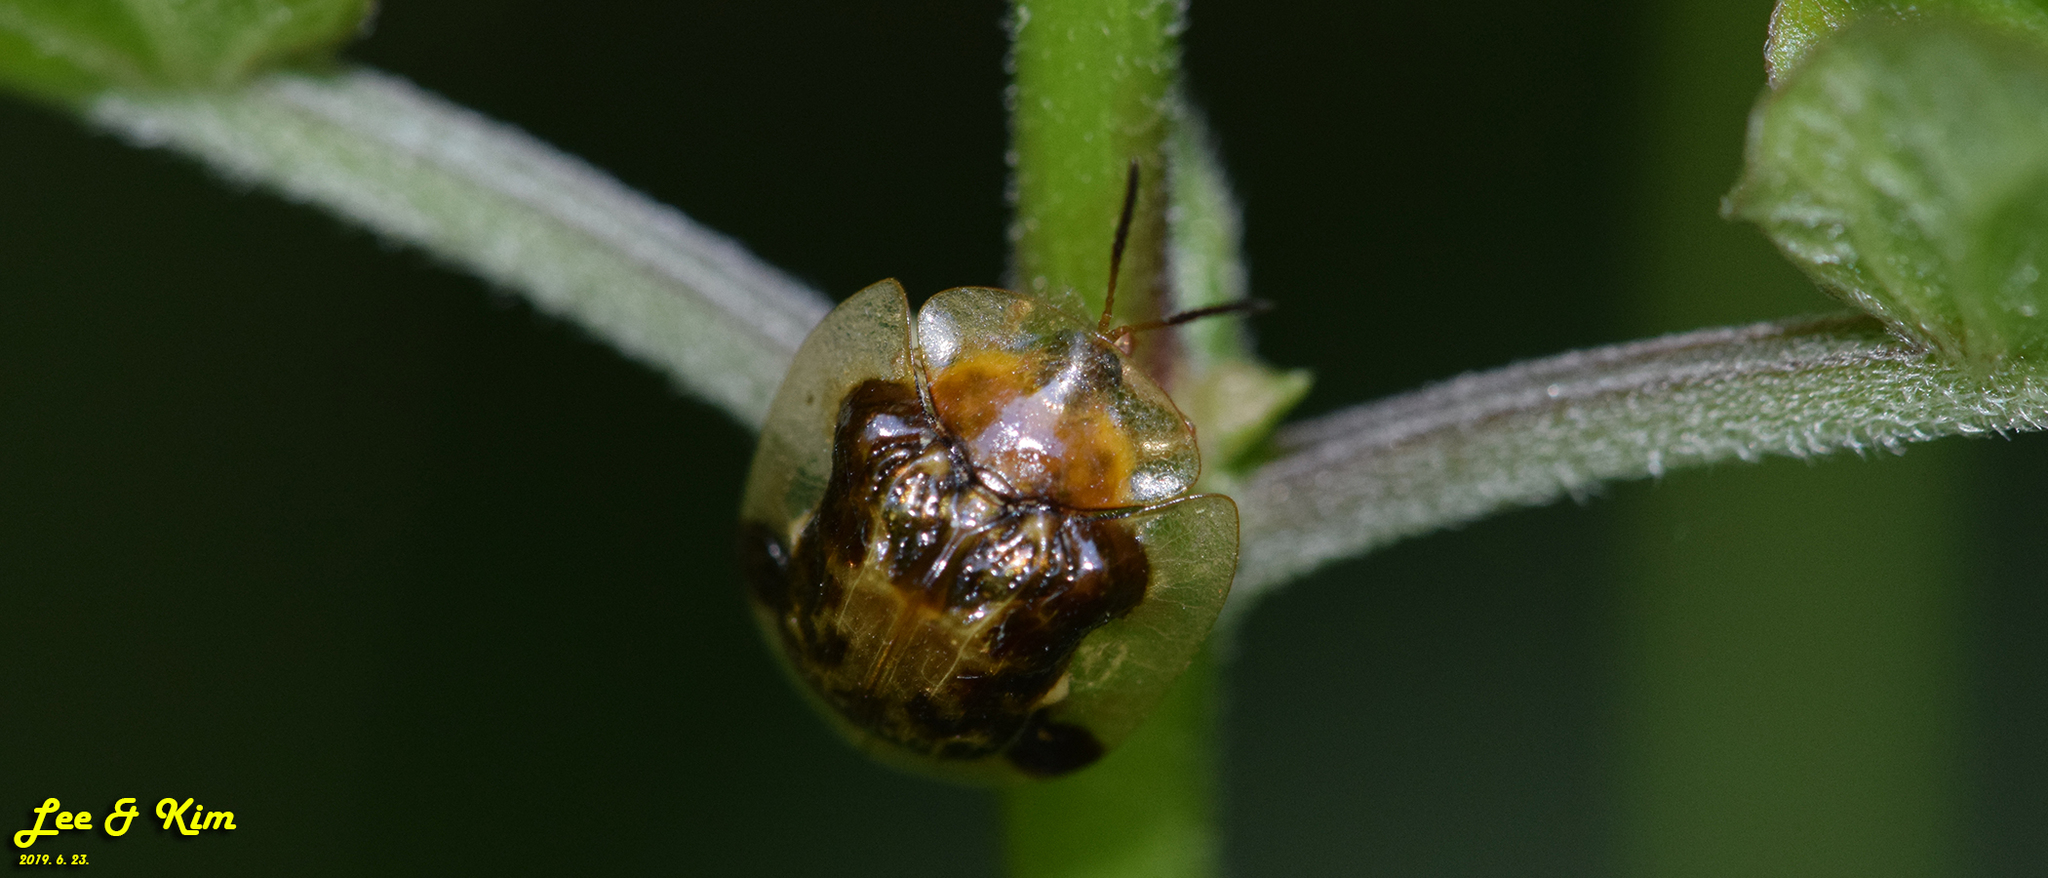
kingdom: Animalia
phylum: Arthropoda
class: Insecta
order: Coleoptera
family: Chrysomelidae
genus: Thlaspida
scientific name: Thlaspida biramosa
